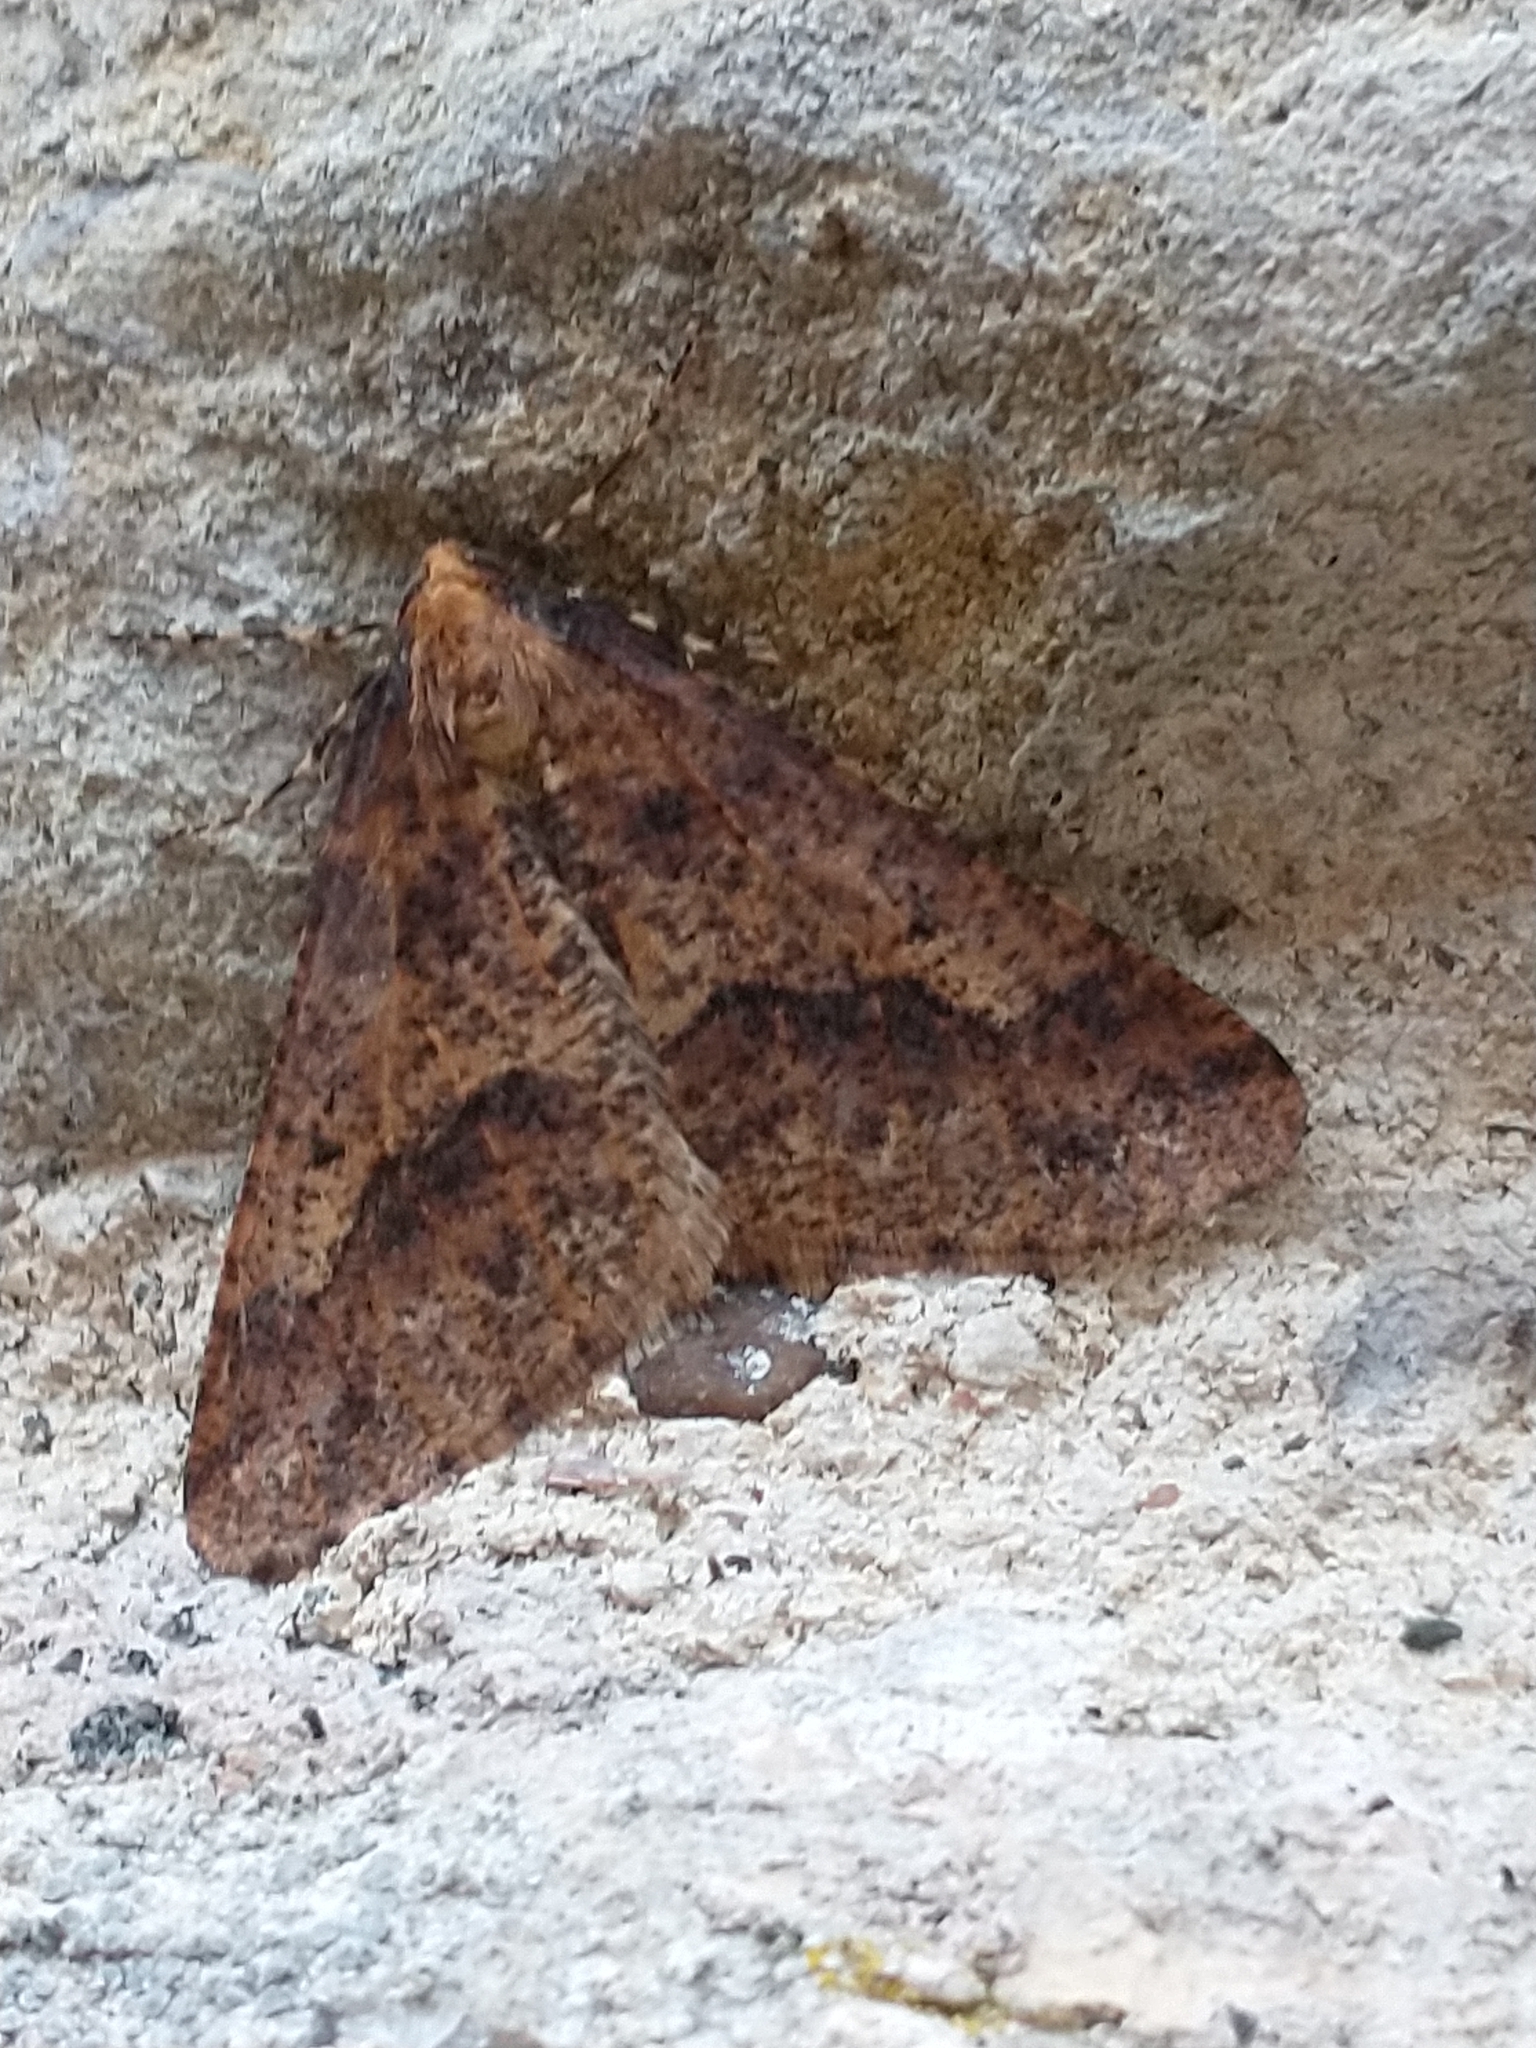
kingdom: Animalia
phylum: Arthropoda
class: Insecta
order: Lepidoptera
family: Geometridae
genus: Erannis
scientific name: Erannis defoliaria
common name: Mottled umber
